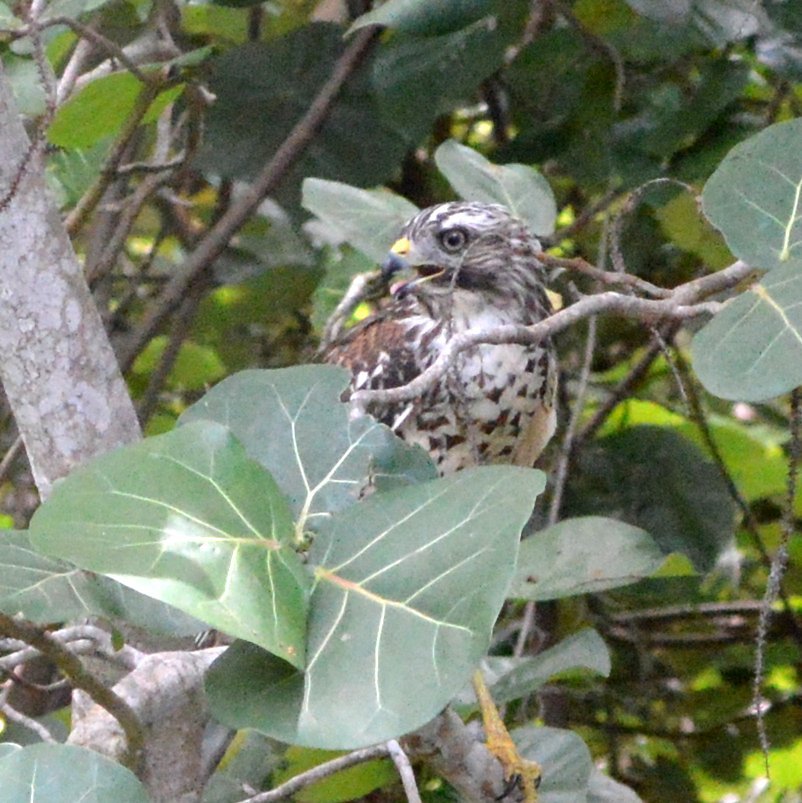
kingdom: Animalia
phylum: Chordata
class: Aves
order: Accipitriformes
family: Accipitridae
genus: Buteo
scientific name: Buteo lineatus
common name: Red-shouldered hawk
